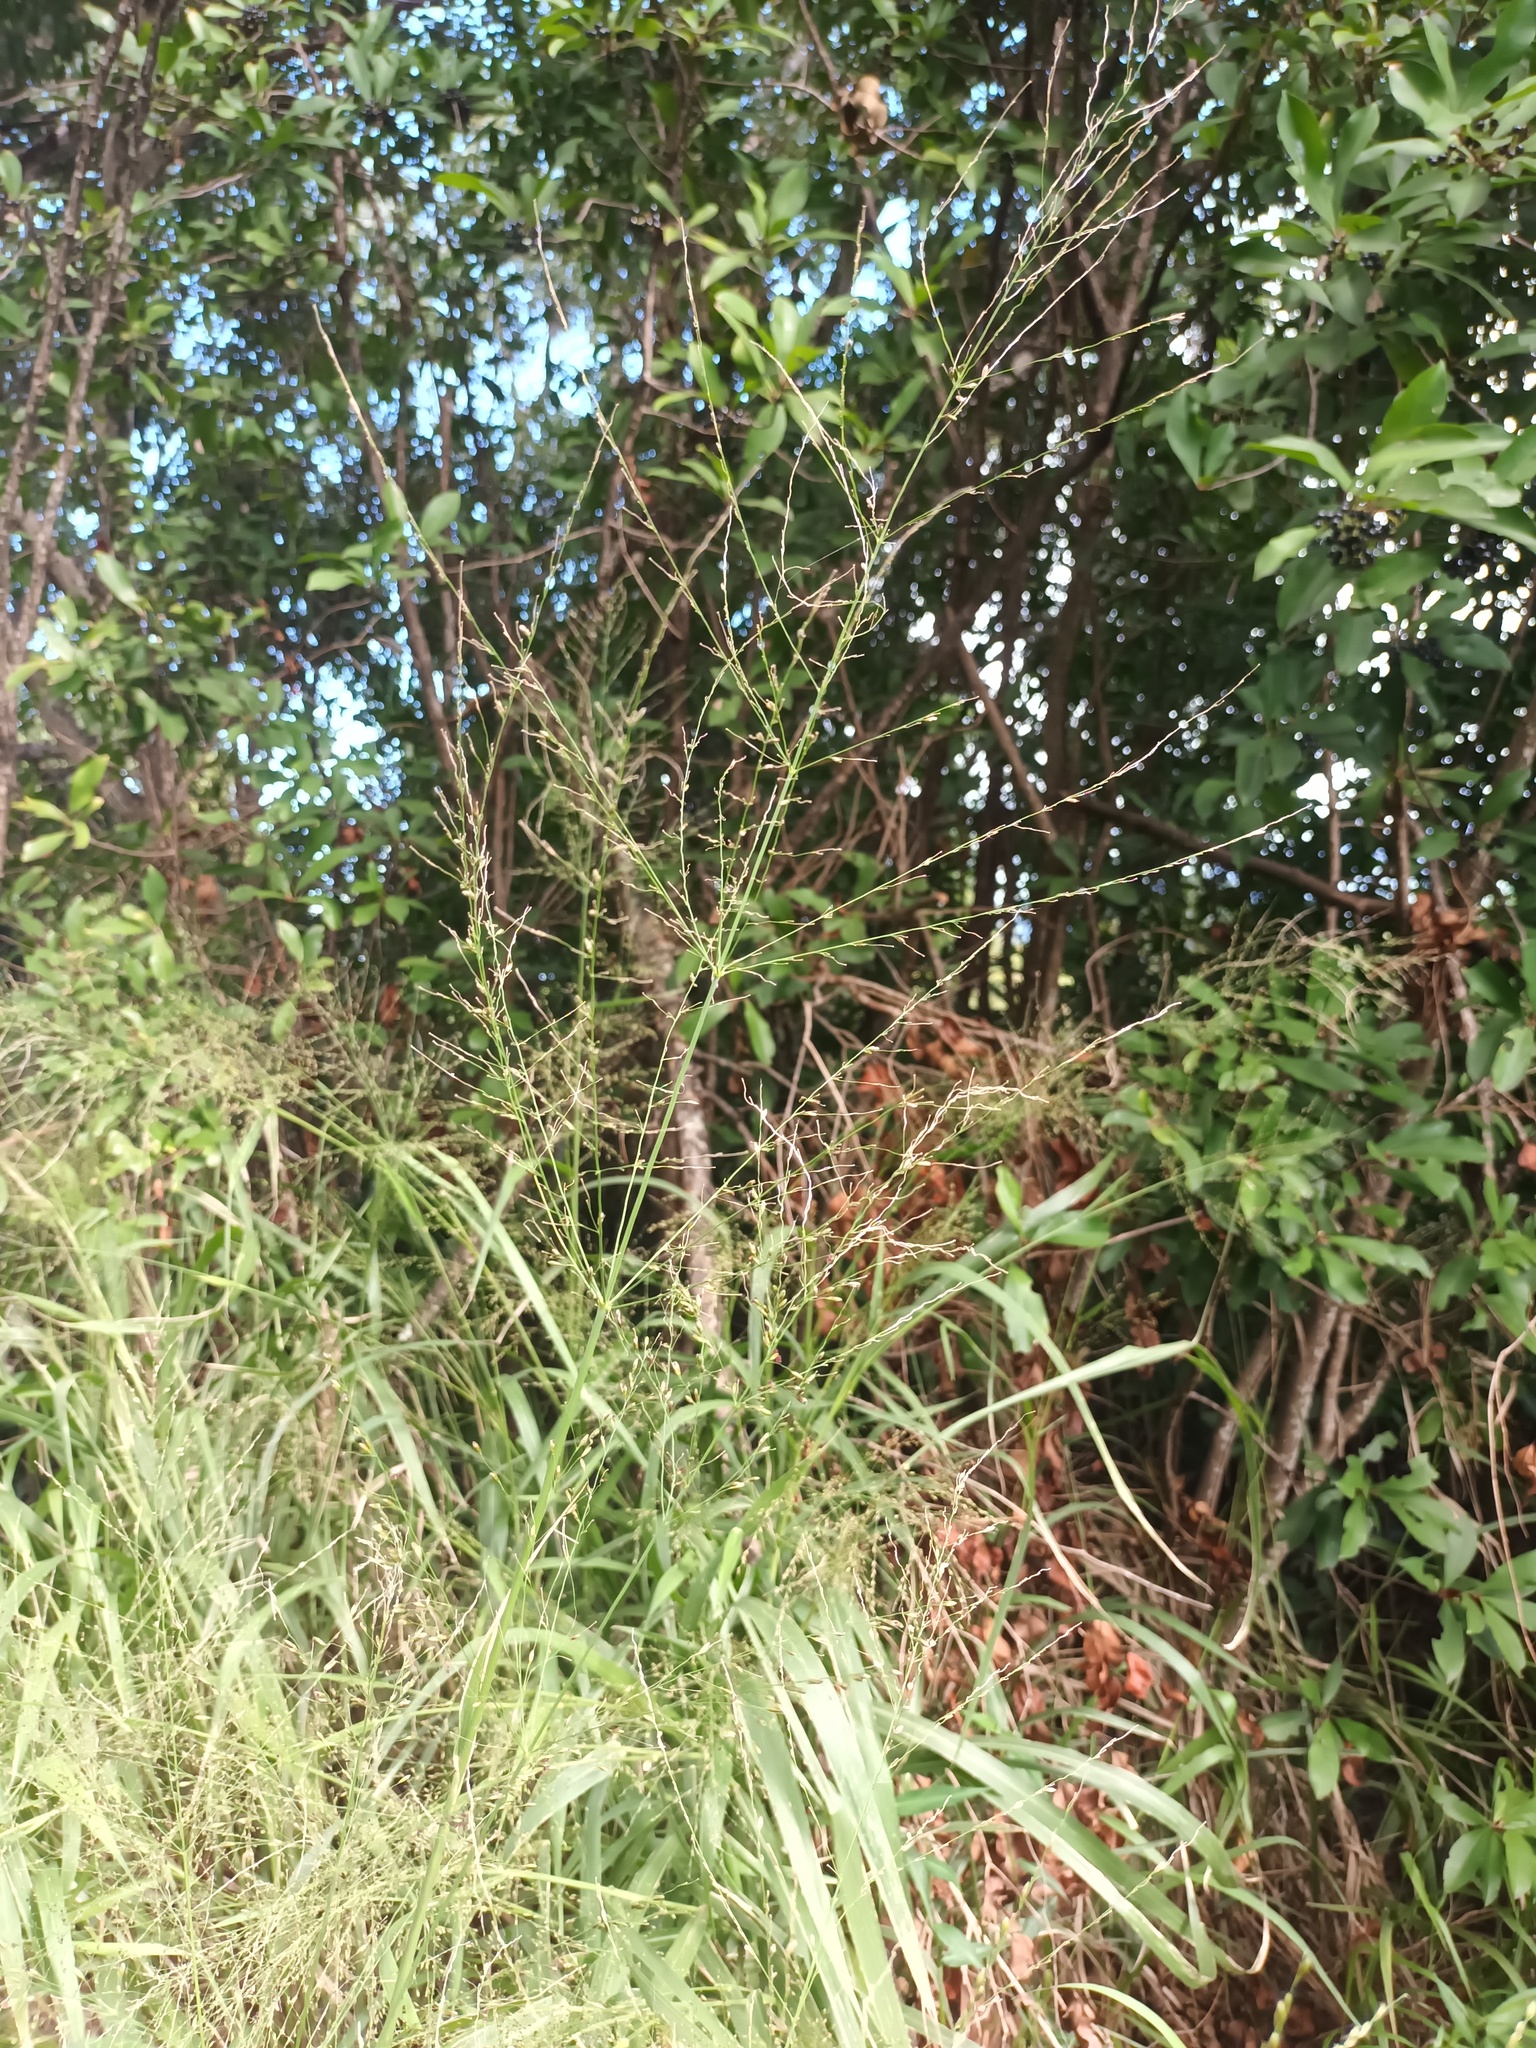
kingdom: Plantae
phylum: Tracheophyta
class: Liliopsida
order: Poales
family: Poaceae
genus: Megathyrsus
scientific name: Megathyrsus maximus
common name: Guineagrass
